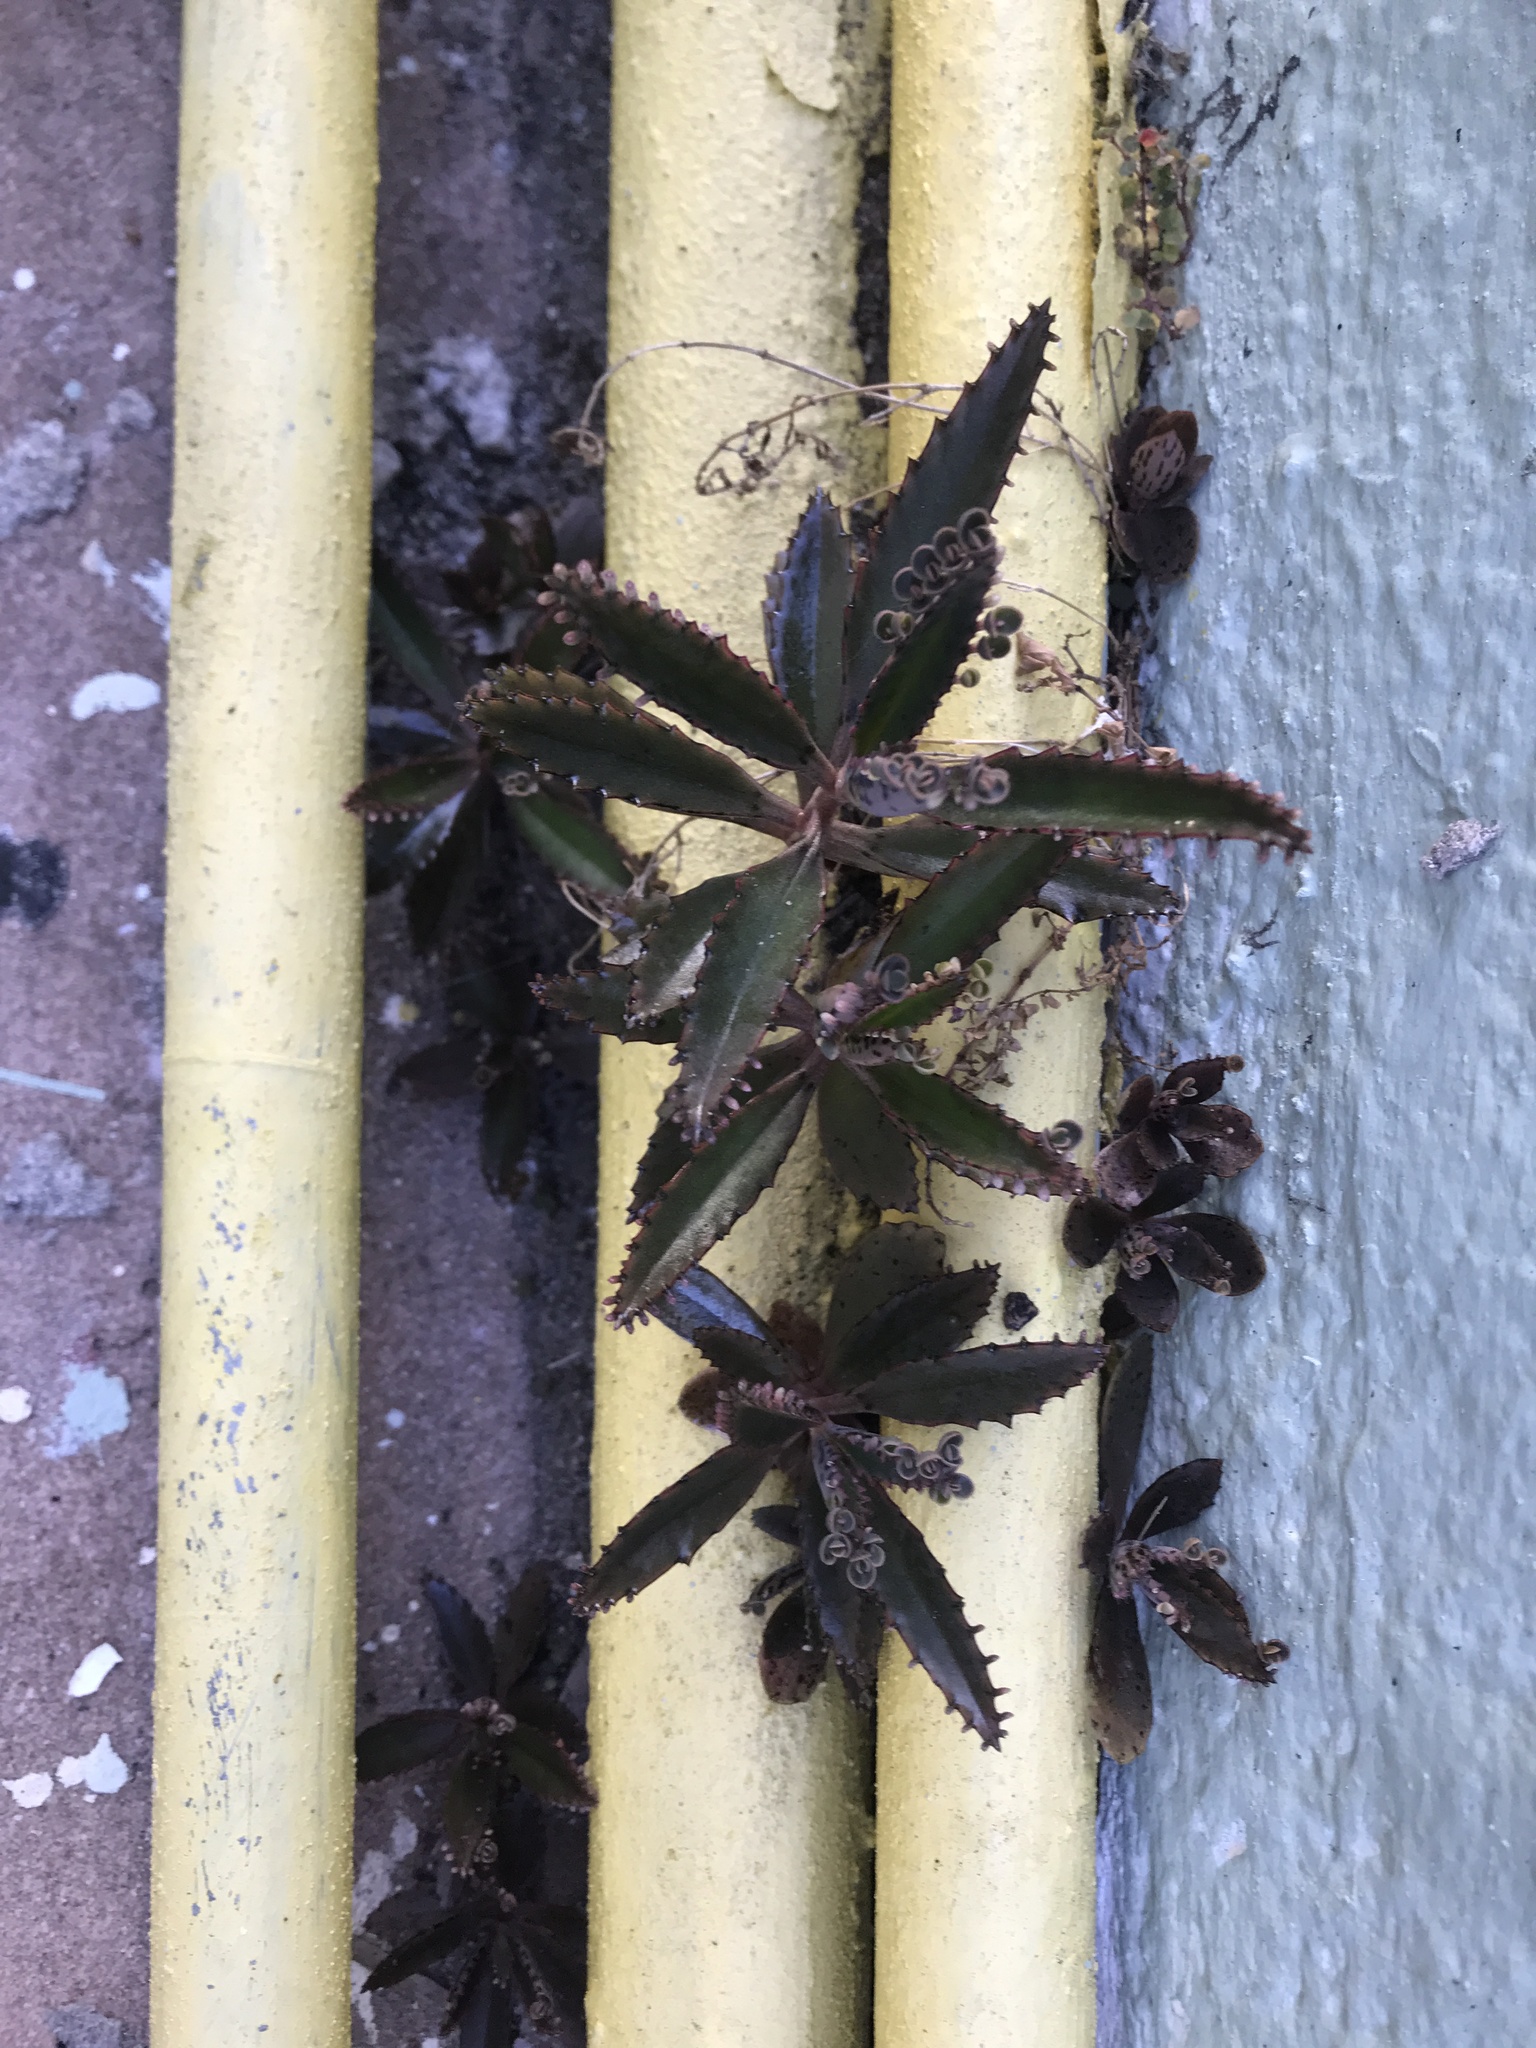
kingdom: Plantae
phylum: Tracheophyta
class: Magnoliopsida
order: Saxifragales
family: Crassulaceae
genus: Kalanchoe
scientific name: Kalanchoe houghtonii
